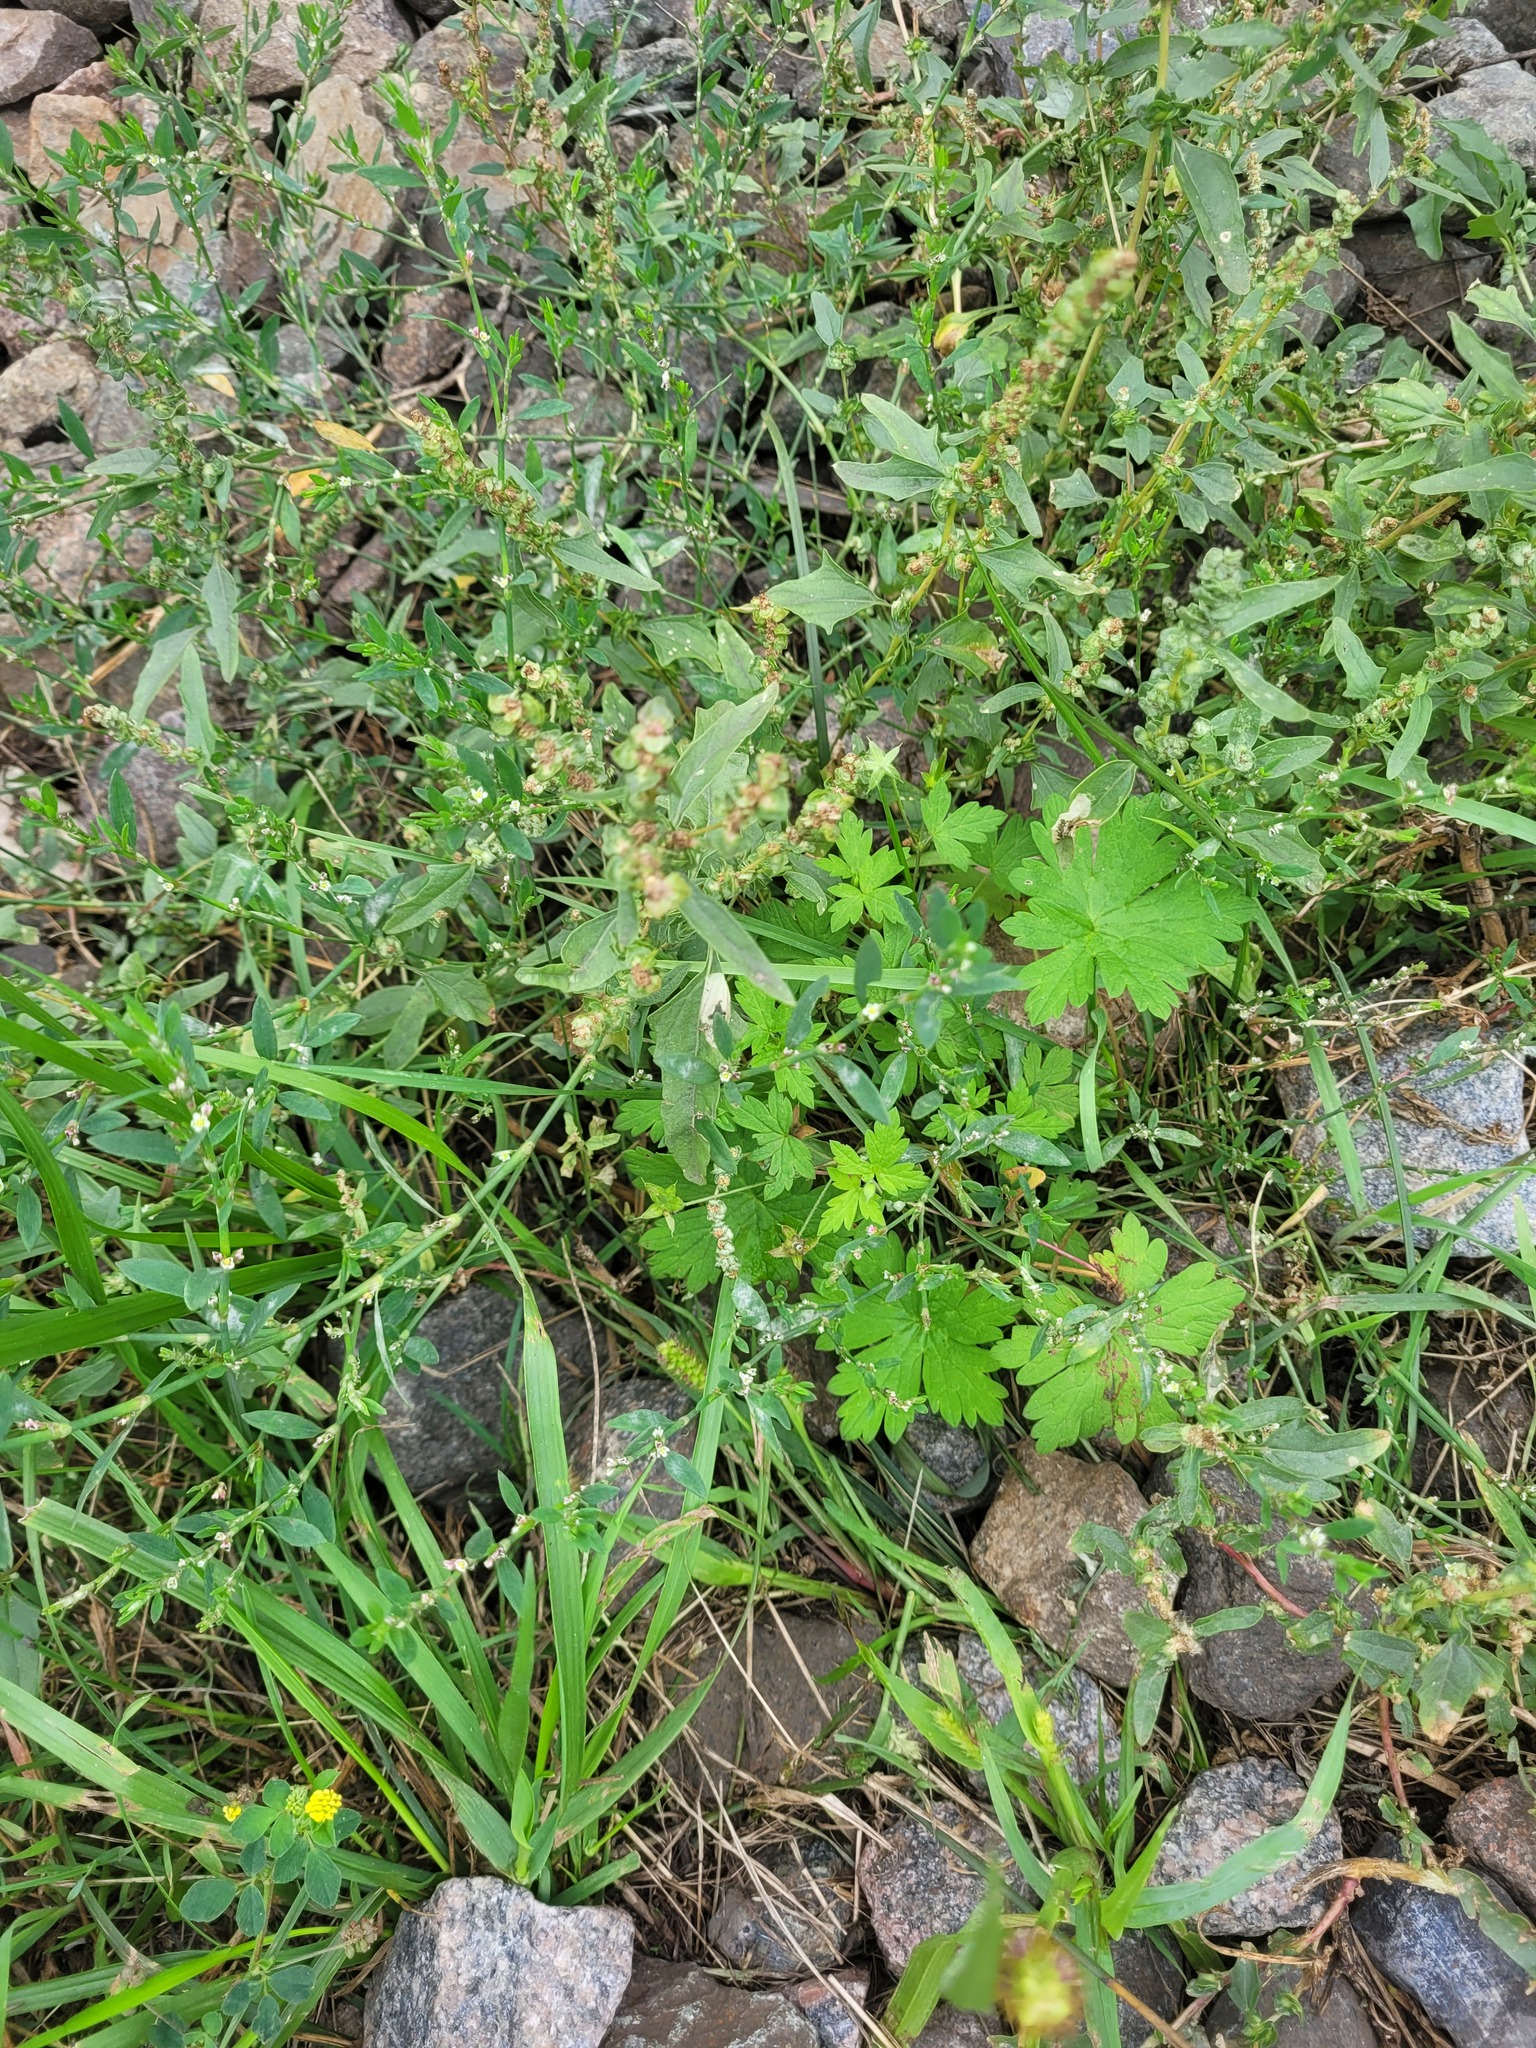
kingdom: Plantae
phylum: Tracheophyta
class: Magnoliopsida
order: Caryophyllales
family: Amaranthaceae
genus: Atriplex
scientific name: Atriplex tatarica
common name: Tatarian orache
